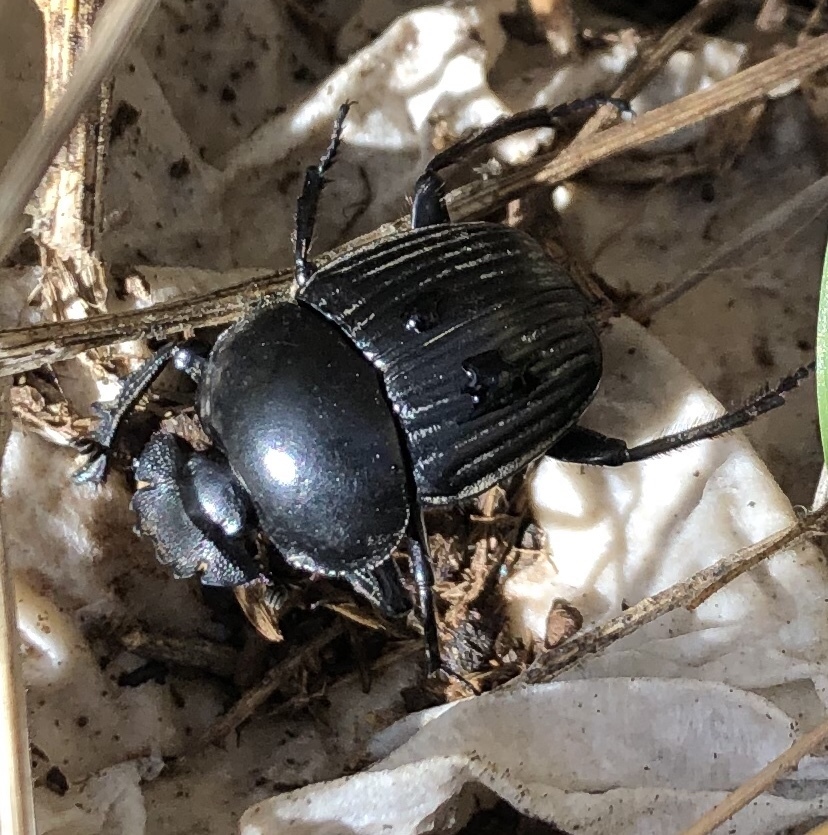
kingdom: Animalia
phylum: Arthropoda
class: Insecta
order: Coleoptera
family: Scarabaeidae
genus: Ateuchetus
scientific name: Ateuchetus laticollis
